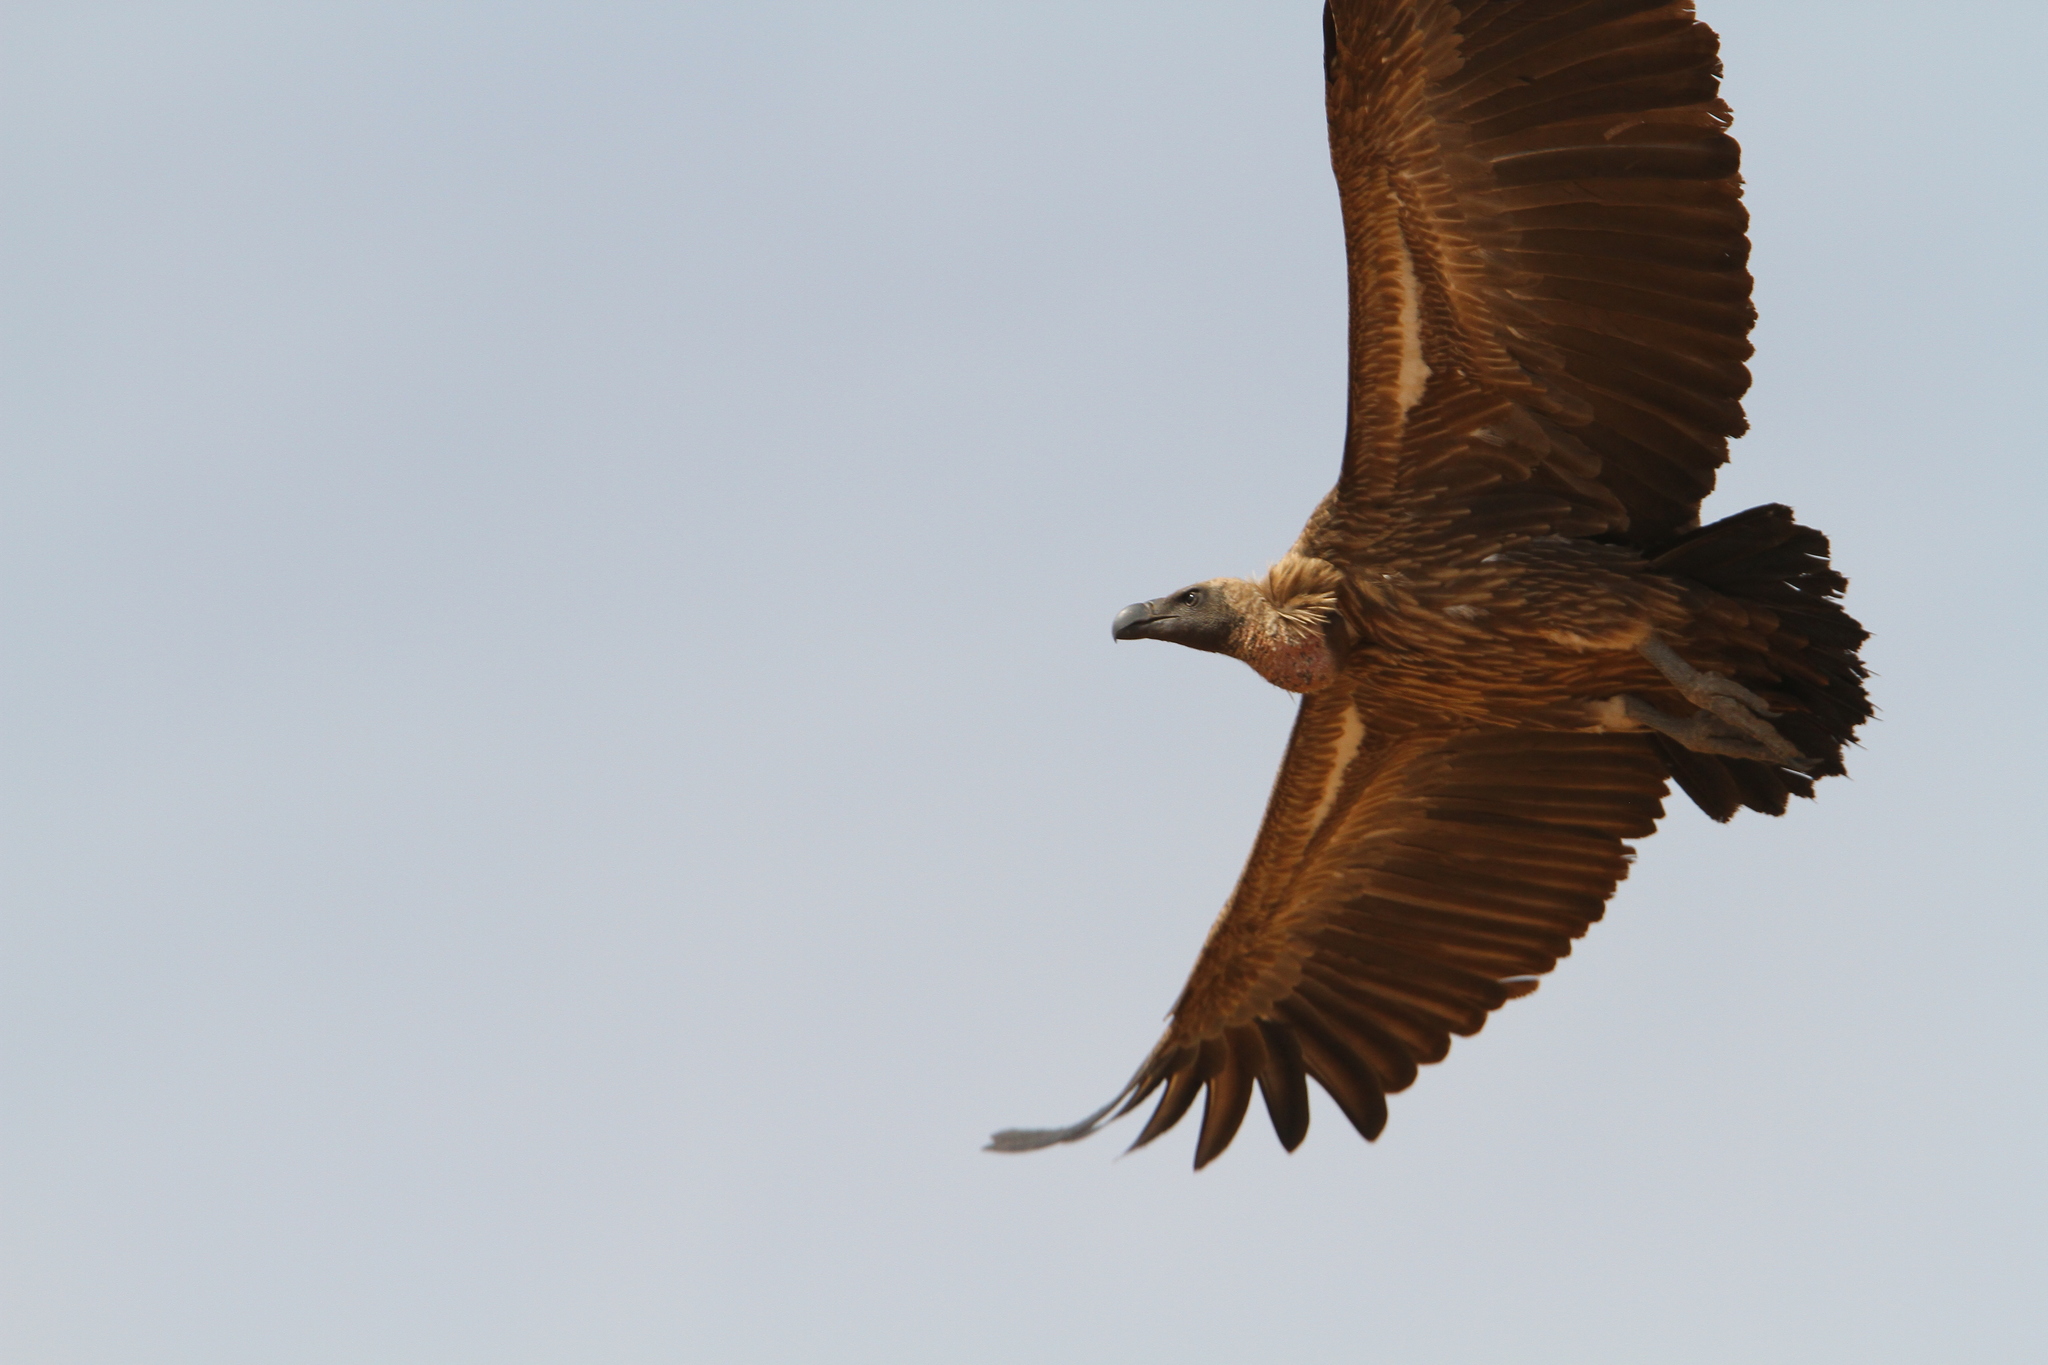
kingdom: Animalia
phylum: Chordata
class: Aves
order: Accipitriformes
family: Accipitridae
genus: Gyps
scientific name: Gyps africanus
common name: White-backed vulture
